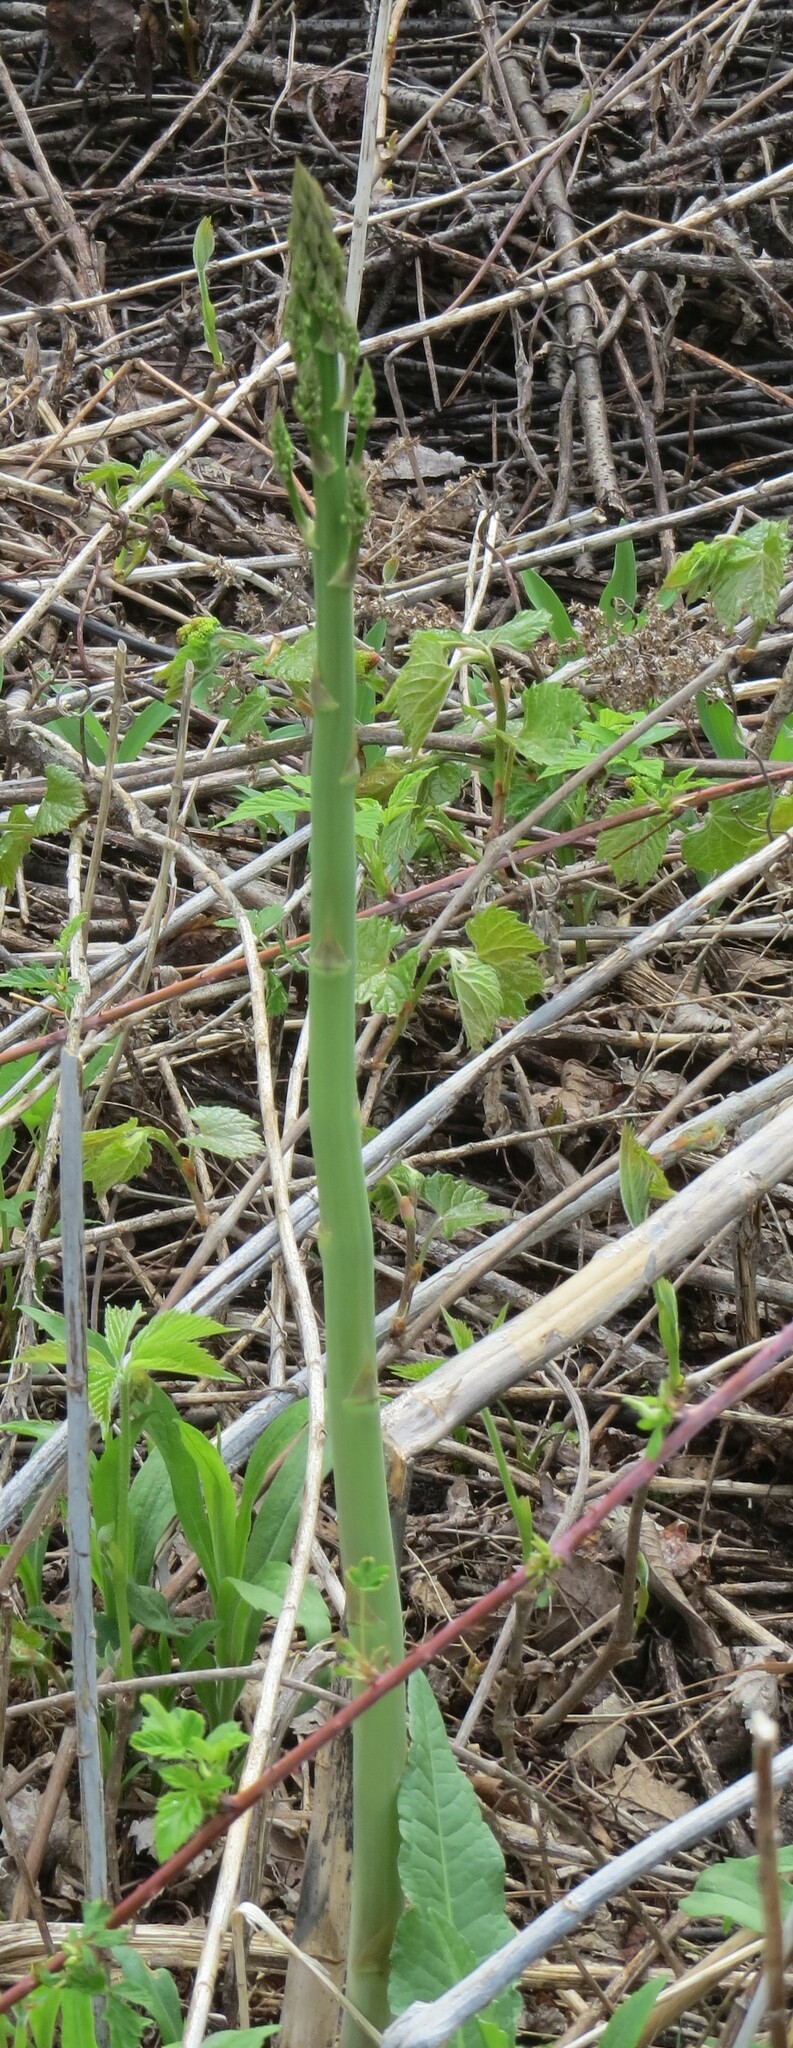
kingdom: Plantae
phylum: Tracheophyta
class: Liliopsida
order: Asparagales
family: Asparagaceae
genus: Asparagus
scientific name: Asparagus officinalis
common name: Garden asparagus
